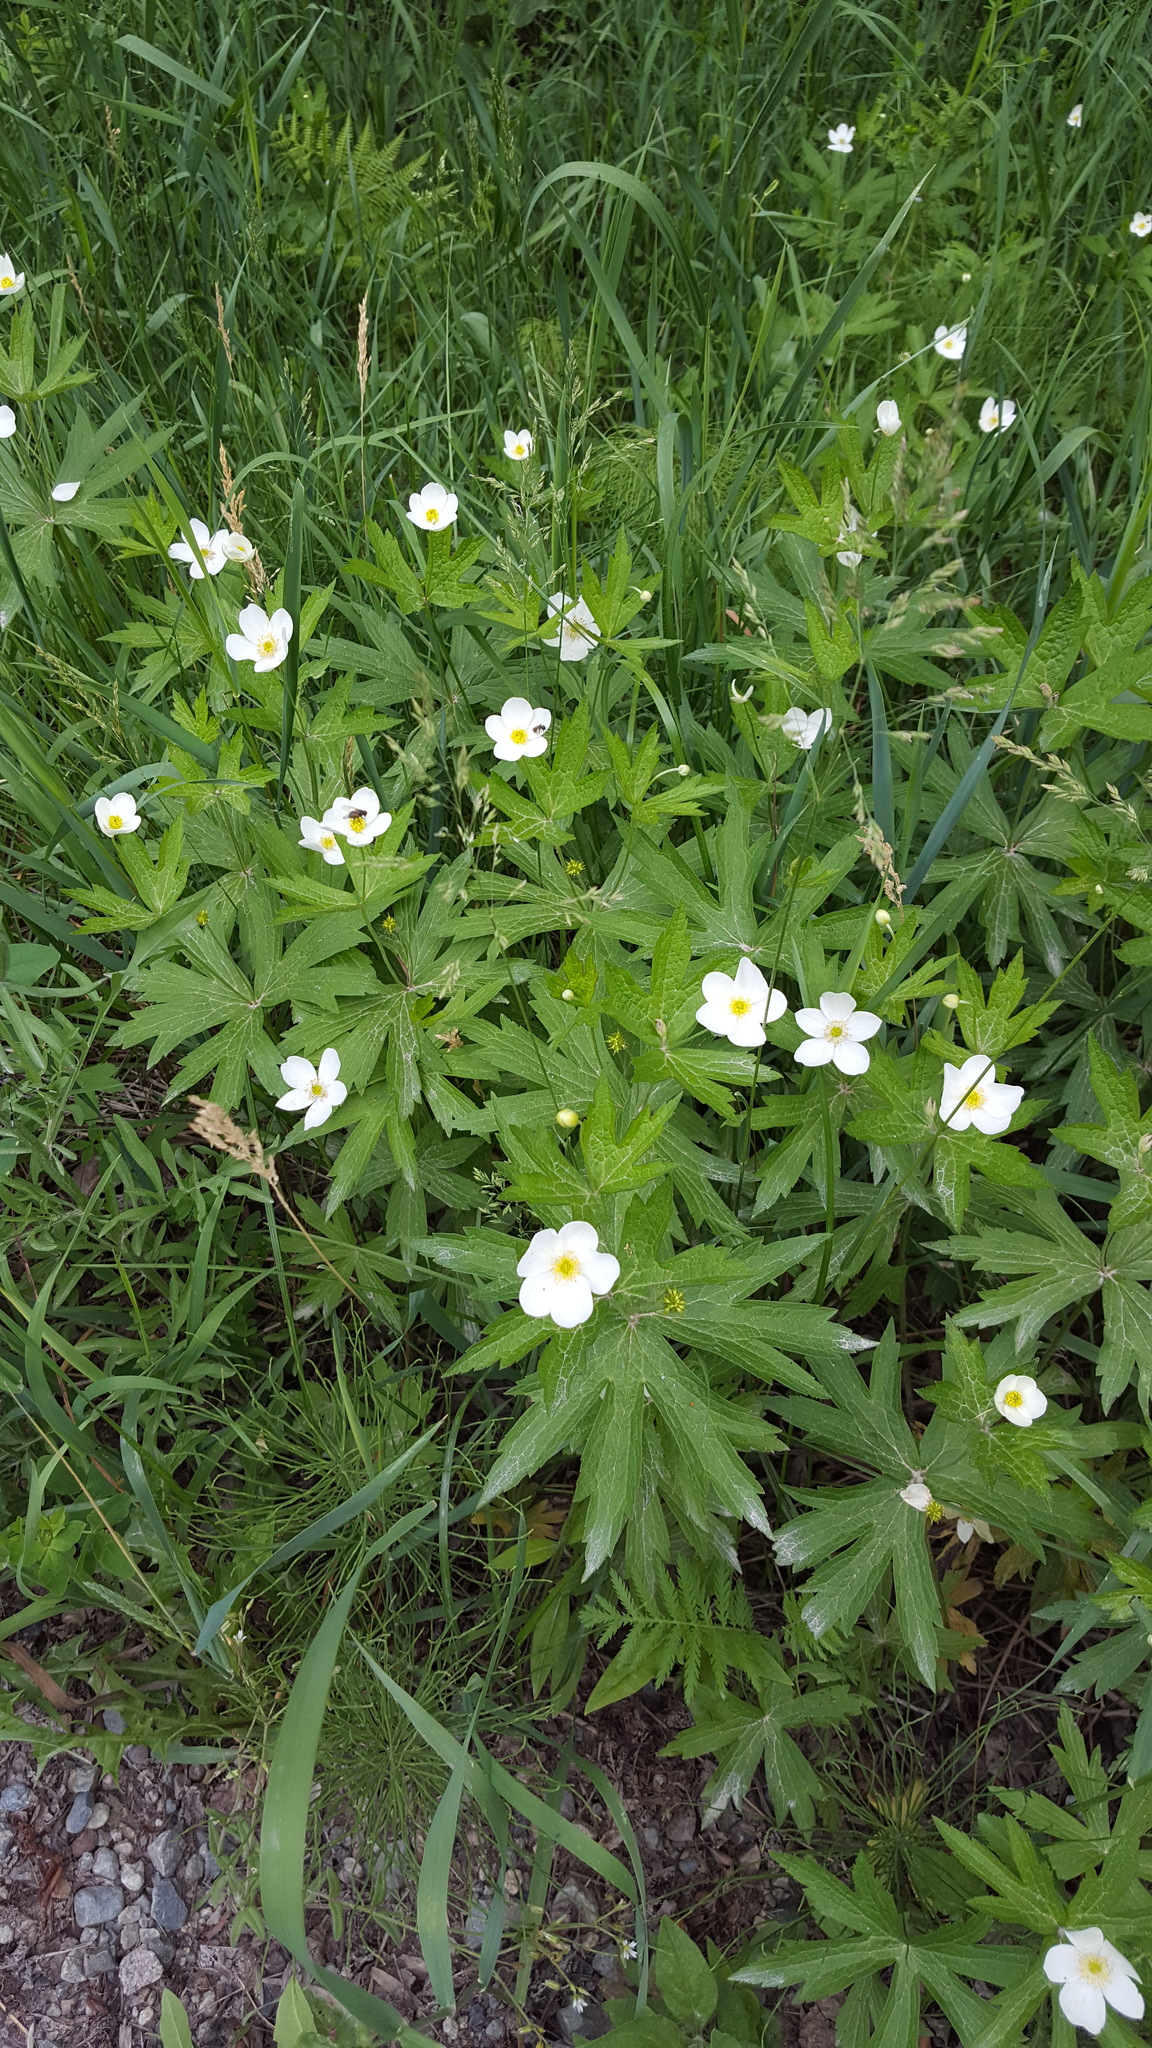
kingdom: Plantae
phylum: Tracheophyta
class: Magnoliopsida
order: Ranunculales
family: Ranunculaceae
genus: Anemonastrum
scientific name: Anemonastrum canadense
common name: Canada anemone
